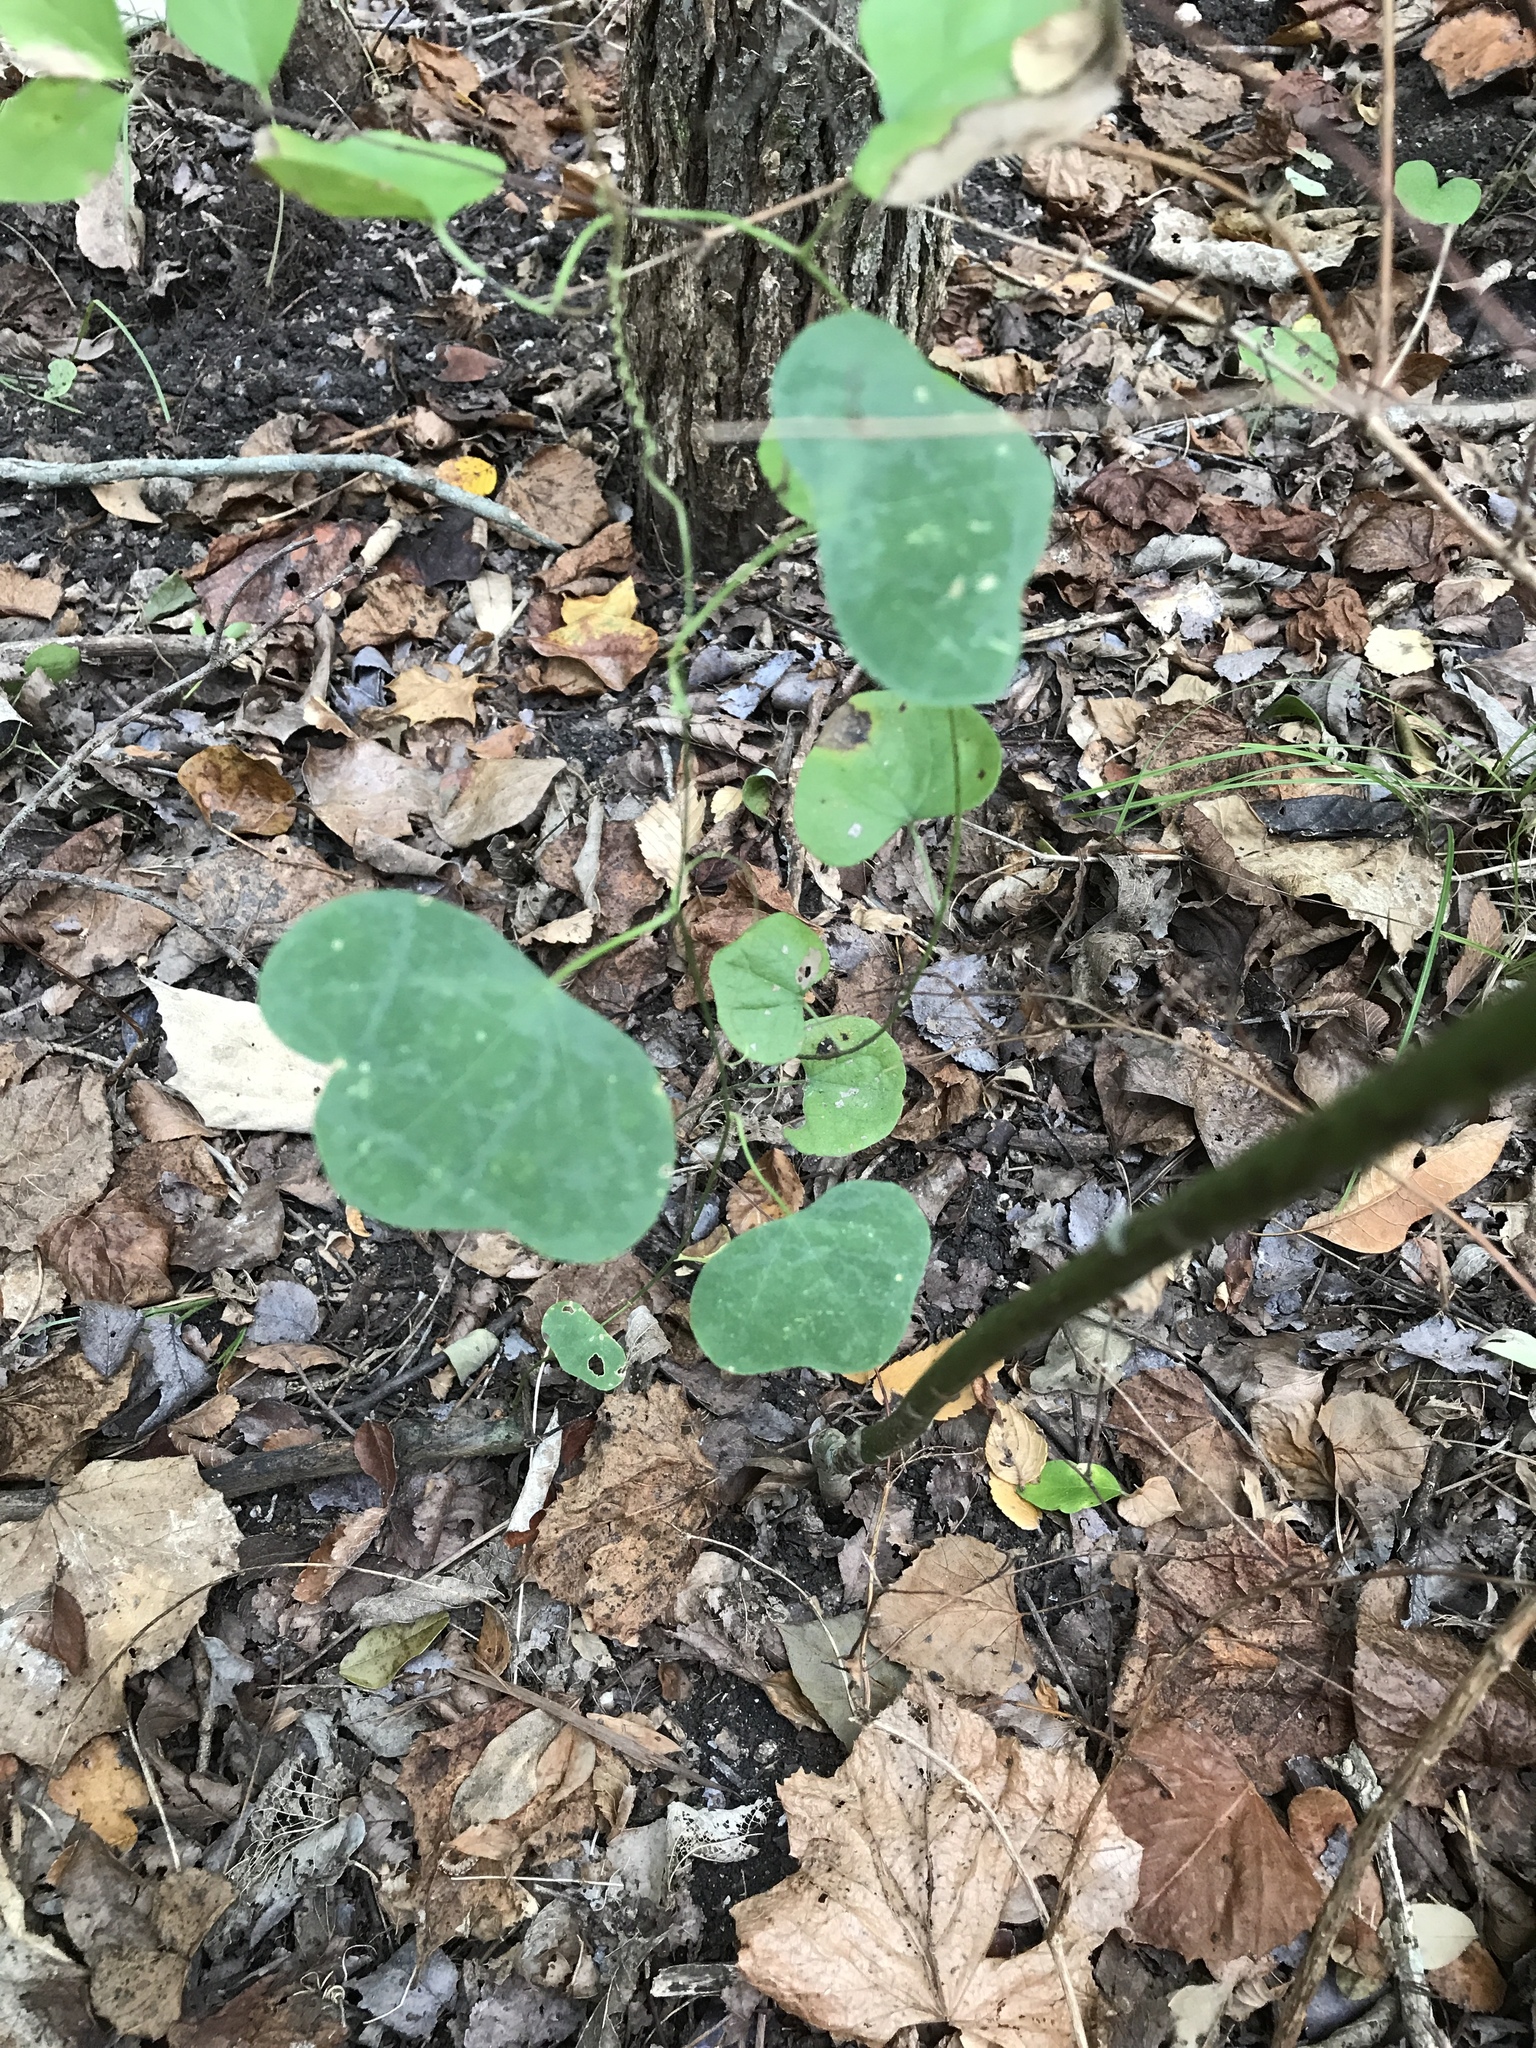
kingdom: Plantae
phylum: Tracheophyta
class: Magnoliopsida
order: Malpighiales
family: Passifloraceae
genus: Passiflora
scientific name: Passiflora lutea
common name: Yellow passionflower
